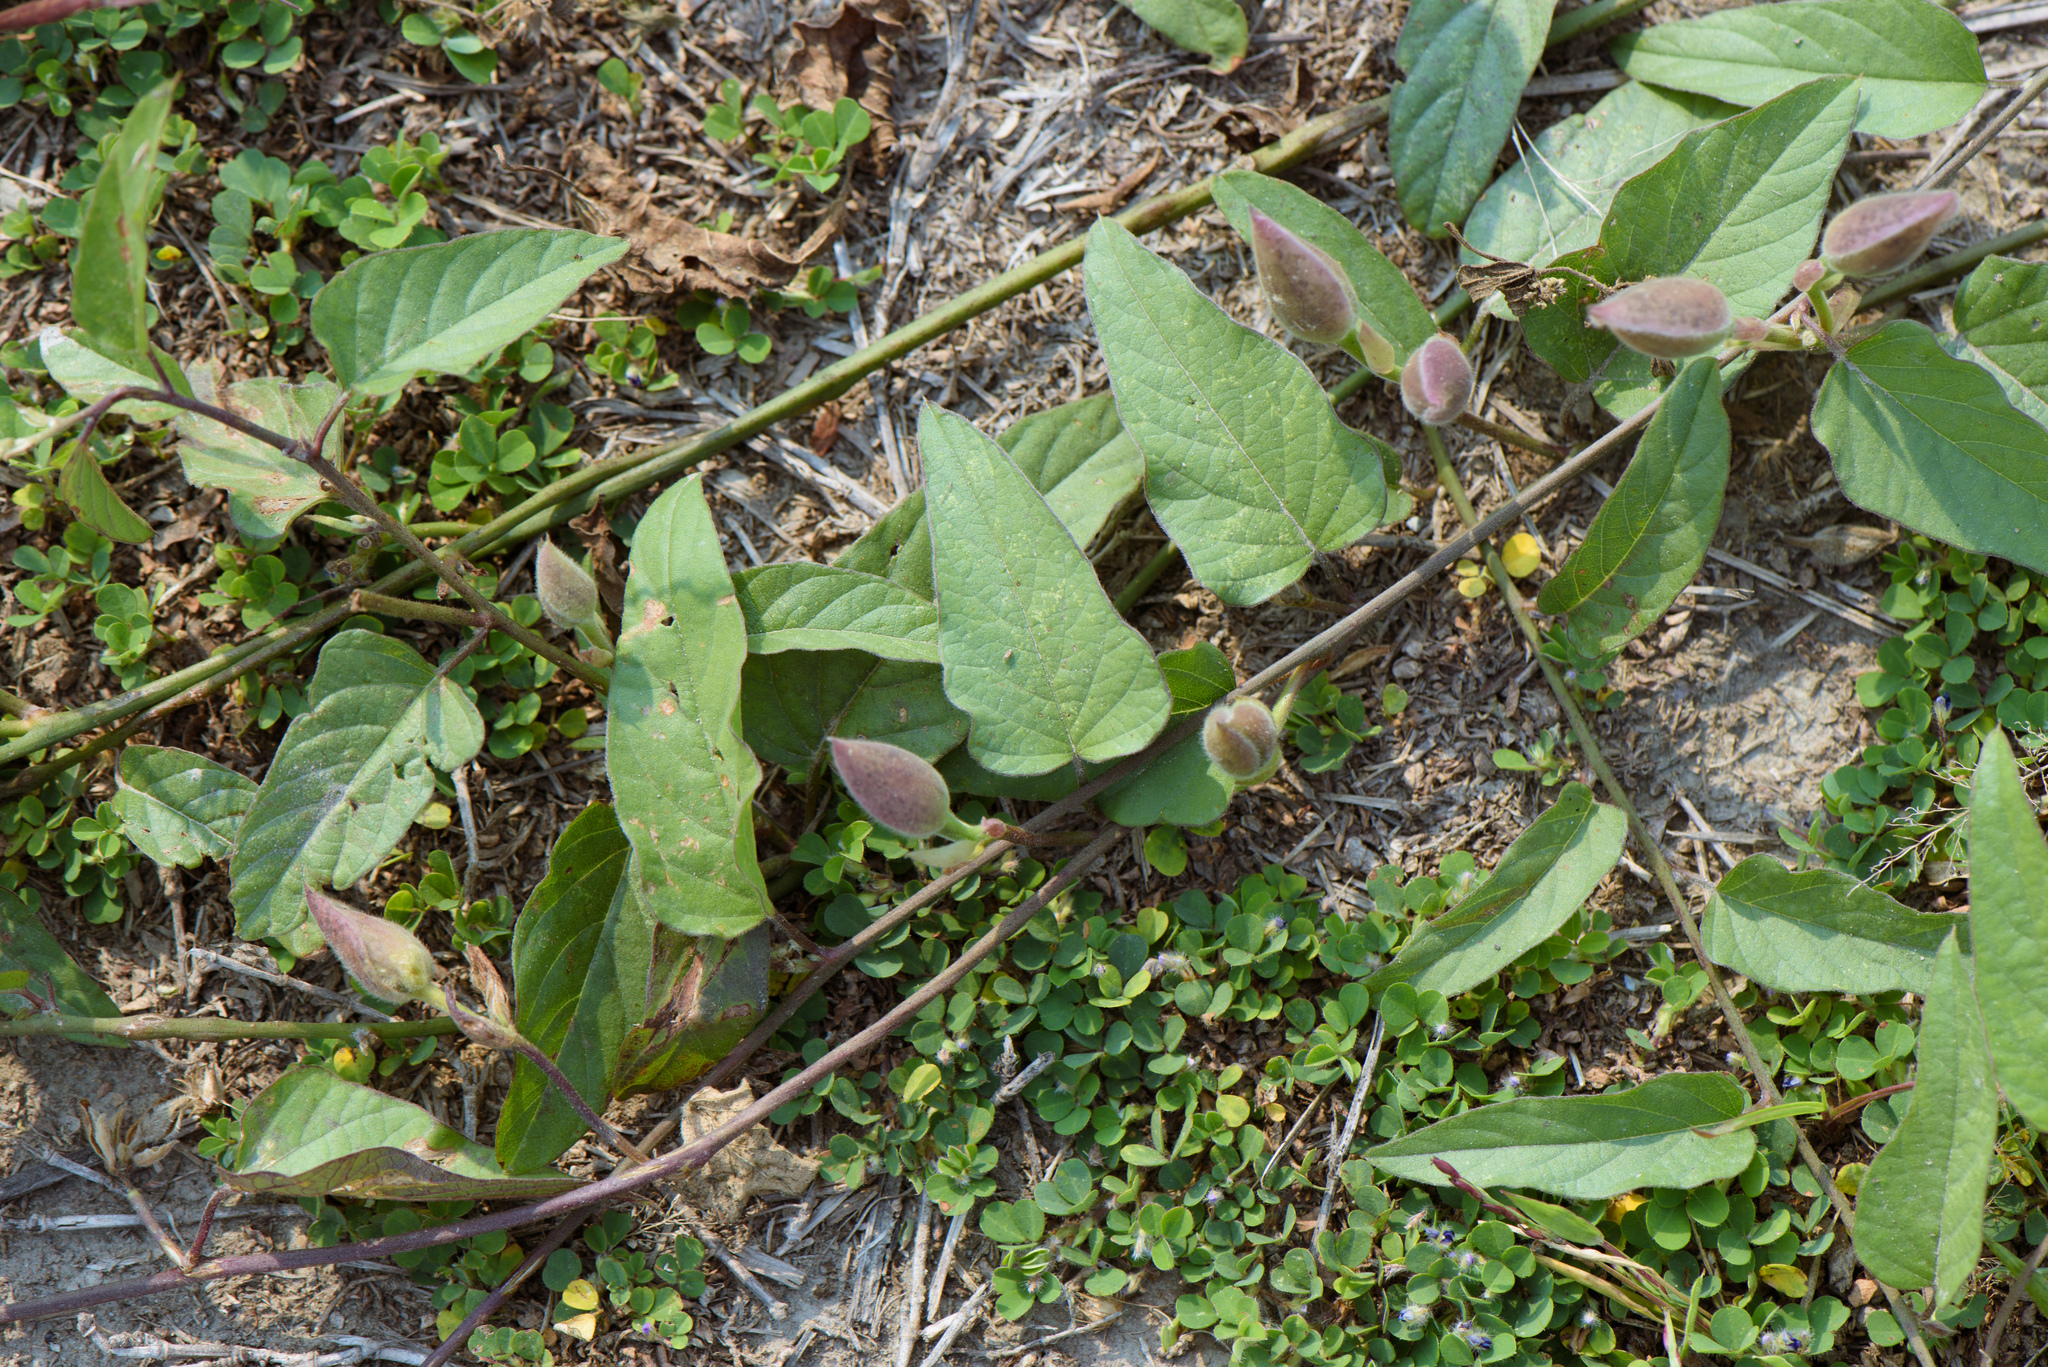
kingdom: Plantae
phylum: Tracheophyta
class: Magnoliopsida
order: Solanales
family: Convolvulaceae
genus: Operculina
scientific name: Operculina turpethum
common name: Transparent wood-rose
